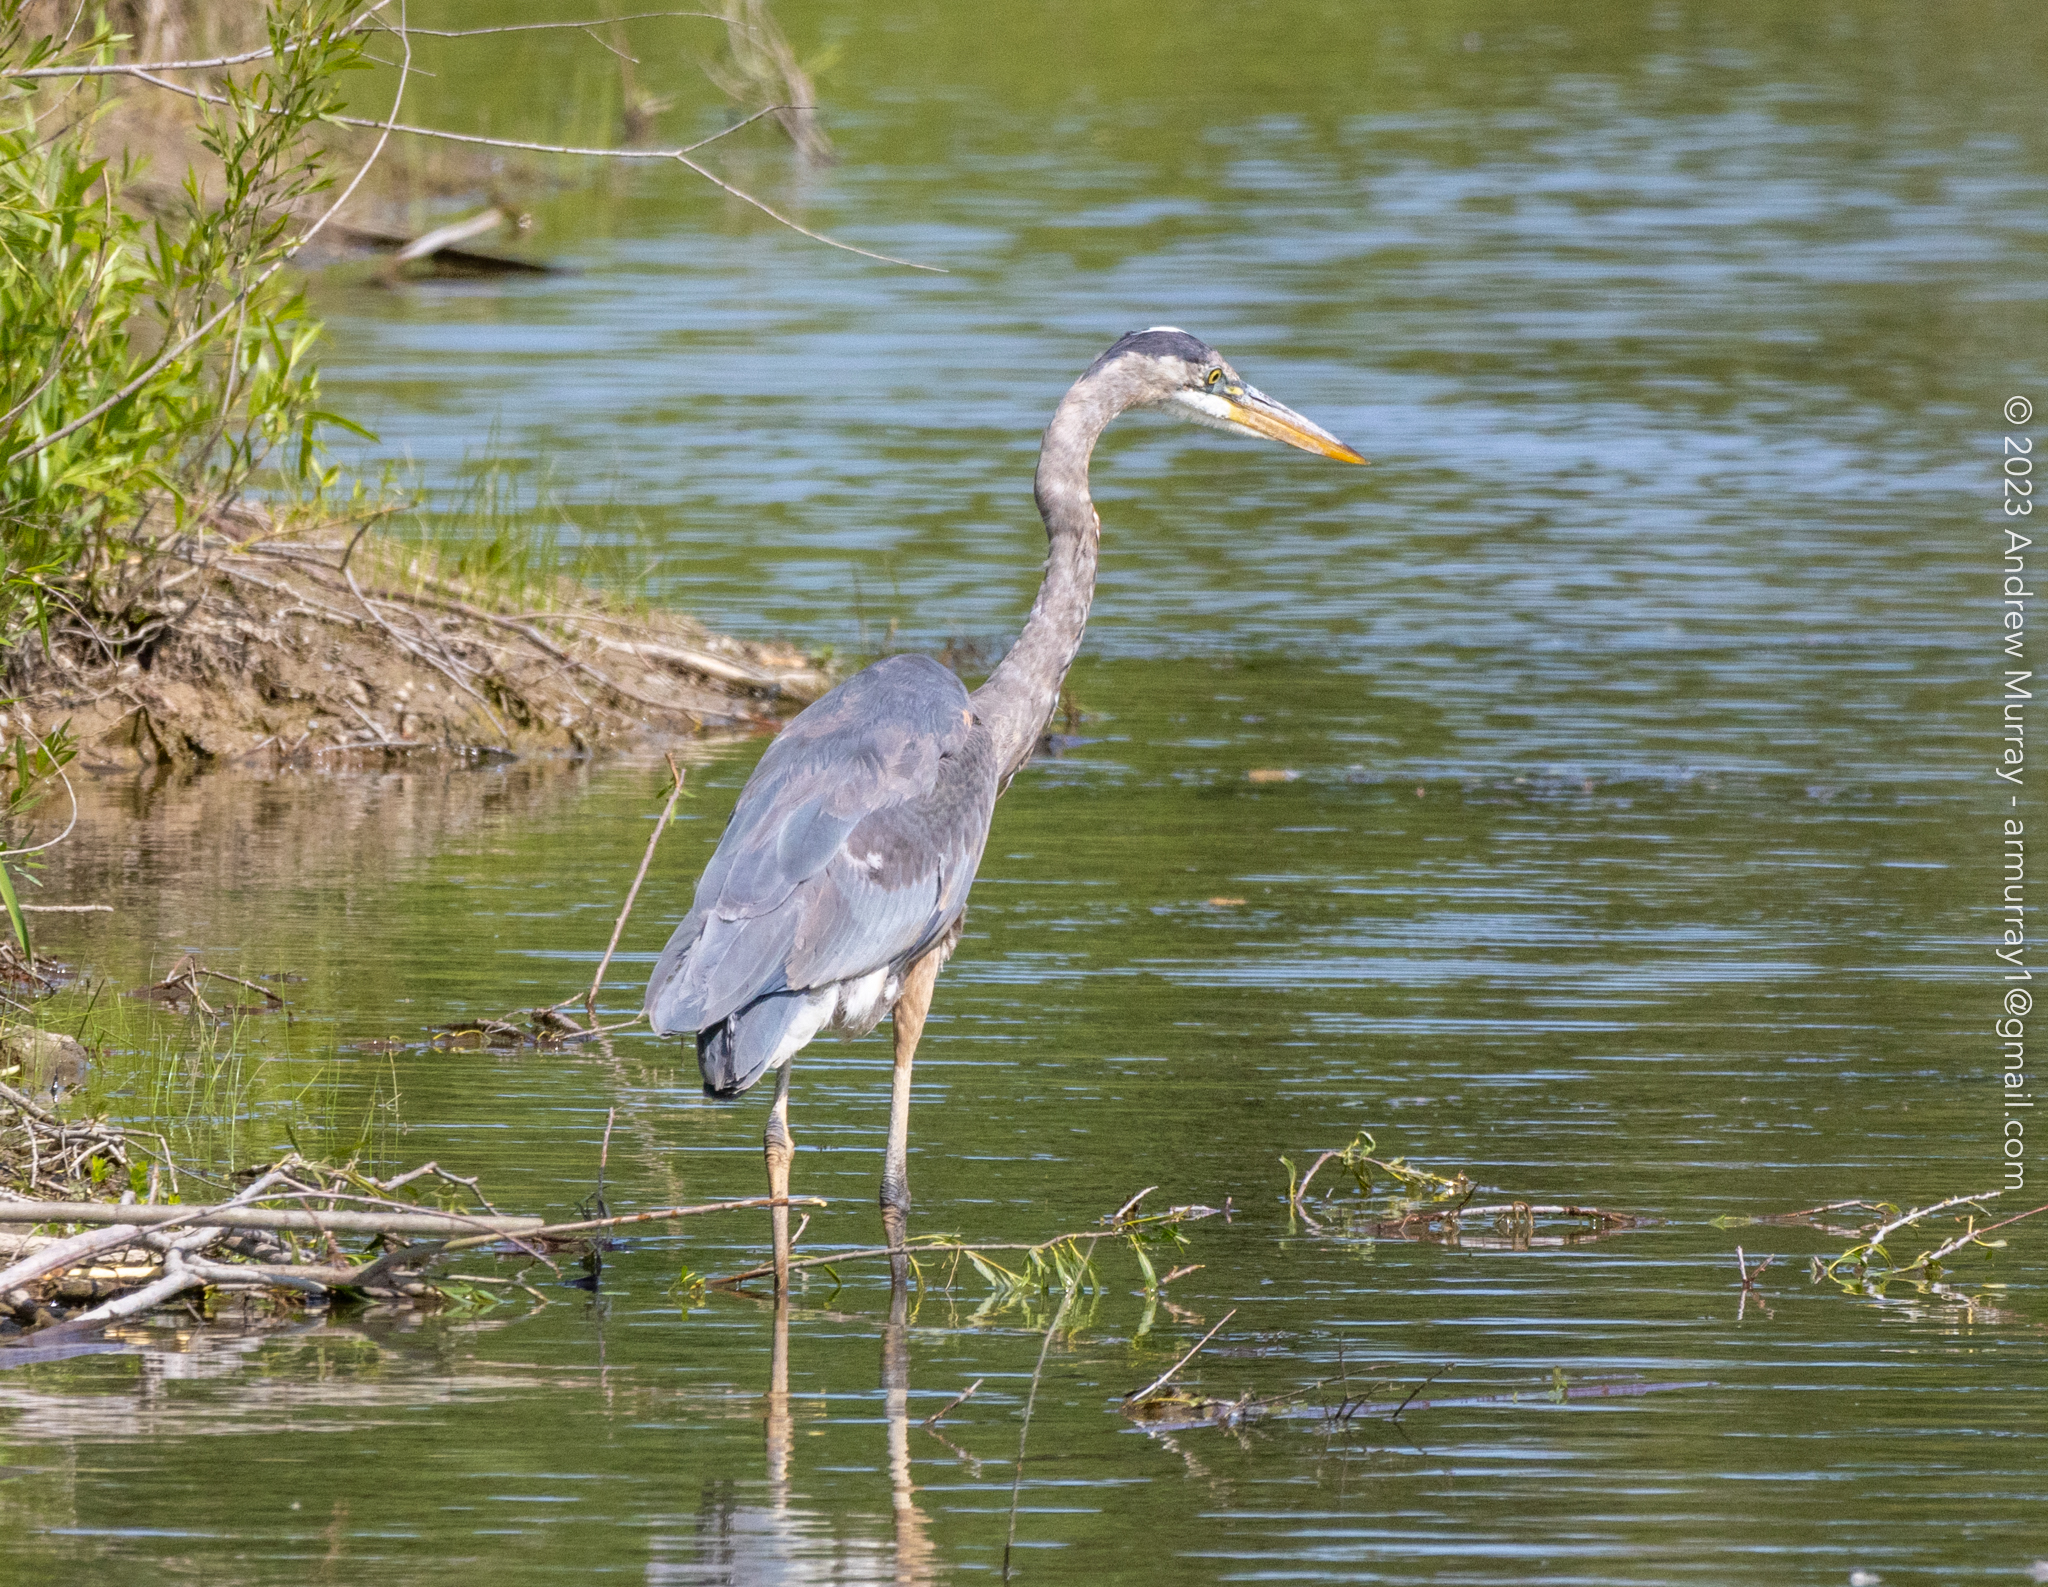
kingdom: Animalia
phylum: Chordata
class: Aves
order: Pelecaniformes
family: Ardeidae
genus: Ardea
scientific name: Ardea herodias
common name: Great blue heron
